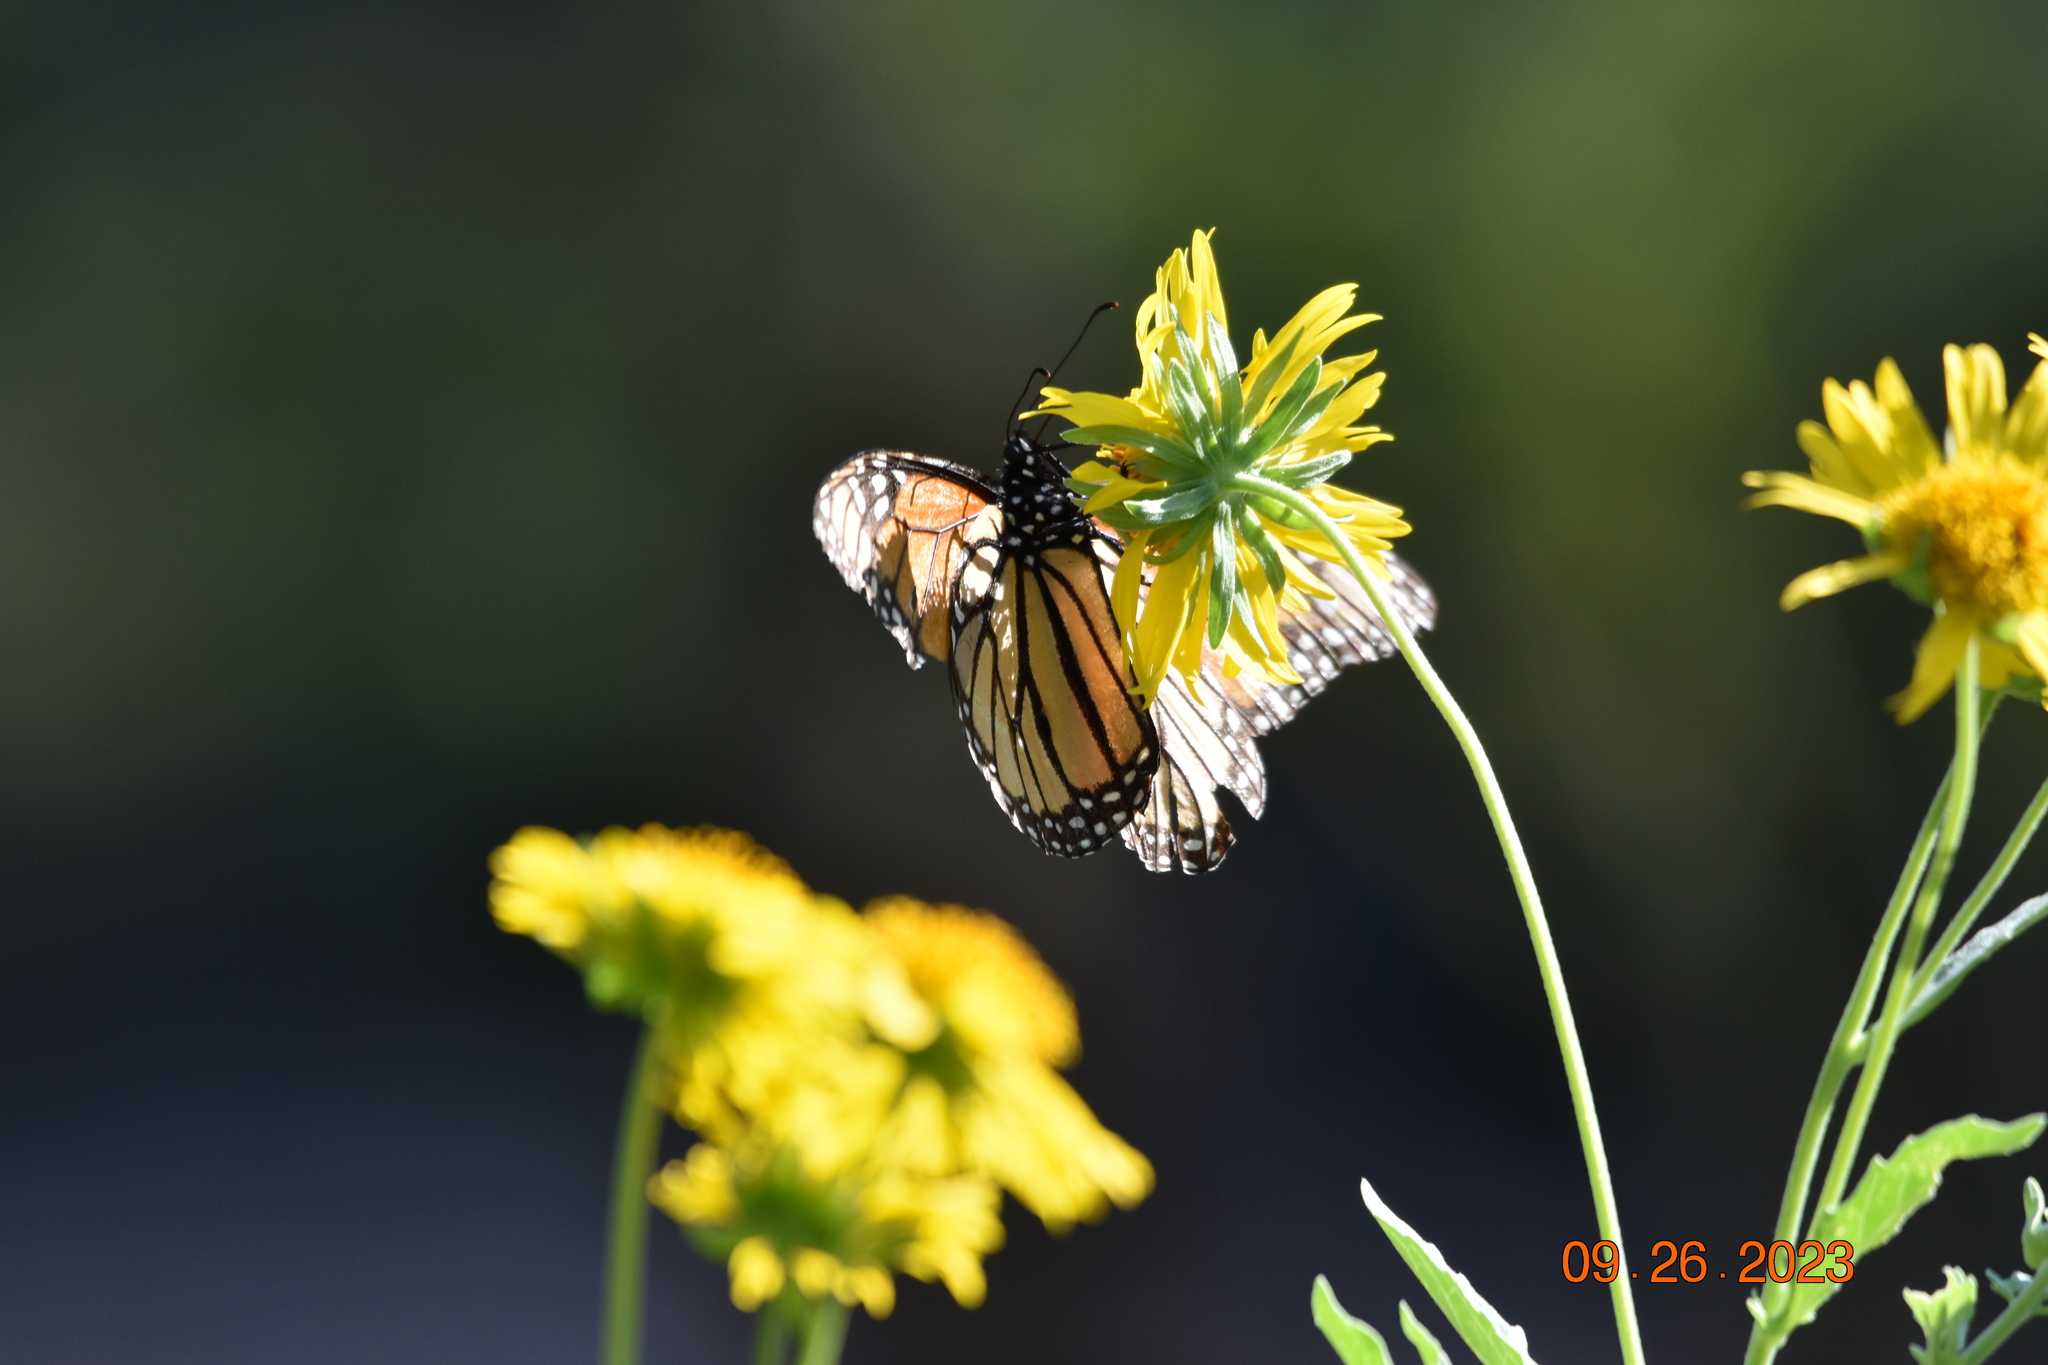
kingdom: Animalia
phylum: Arthropoda
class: Insecta
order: Lepidoptera
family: Nymphalidae
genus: Danaus
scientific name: Danaus plexippus
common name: Monarch
